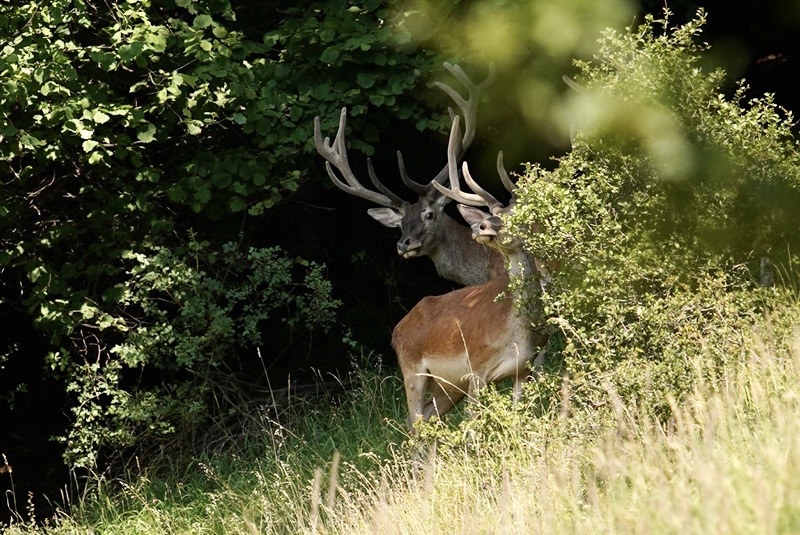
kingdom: Animalia
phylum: Chordata
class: Mammalia
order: Artiodactyla
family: Cervidae
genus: Cervus
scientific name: Cervus elaphus
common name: Red deer
